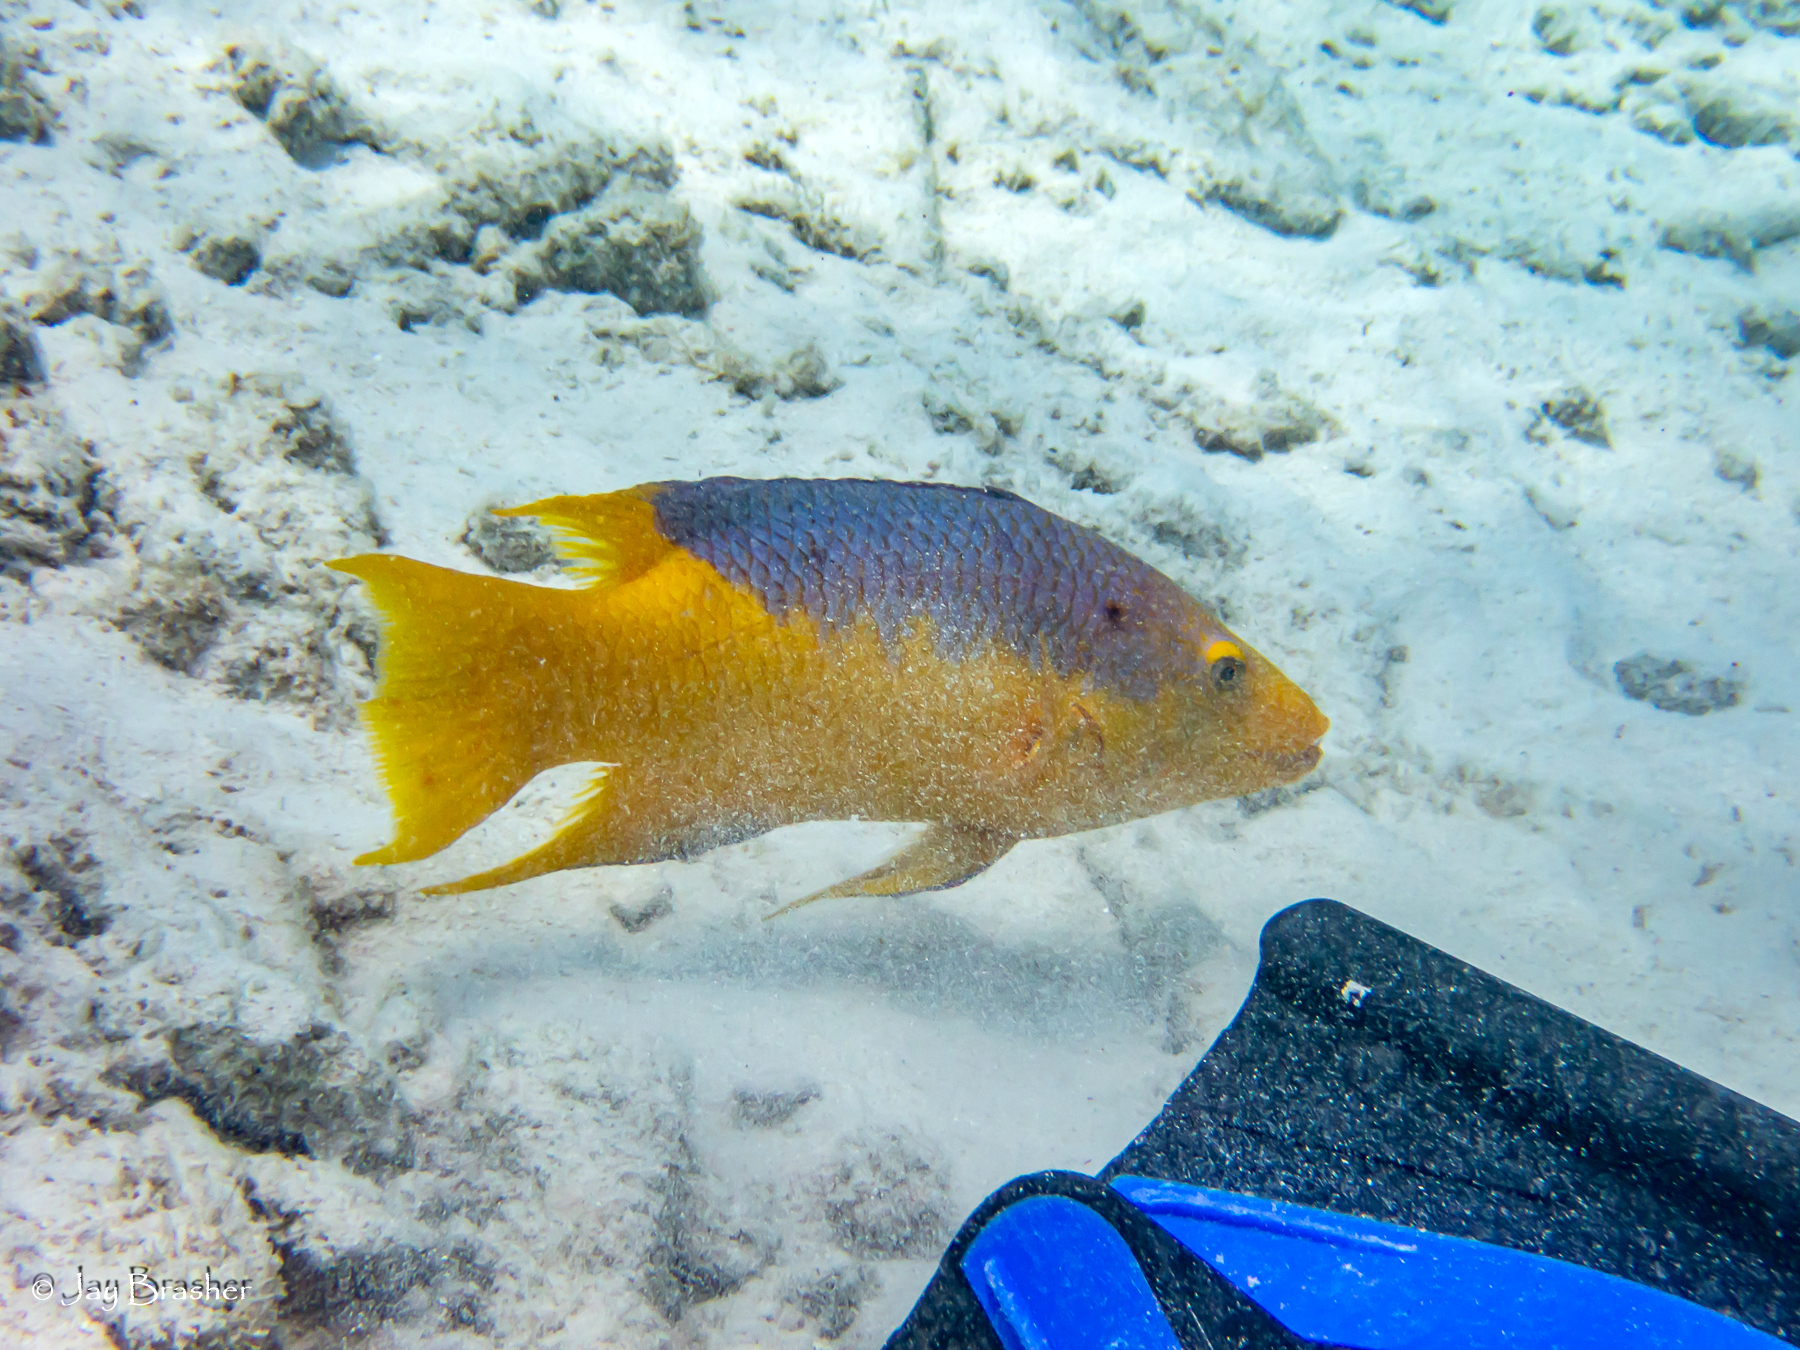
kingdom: Animalia
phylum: Chordata
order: Perciformes
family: Labridae
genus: Bodianus
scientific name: Bodianus rufus
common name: Spanish hogfish
